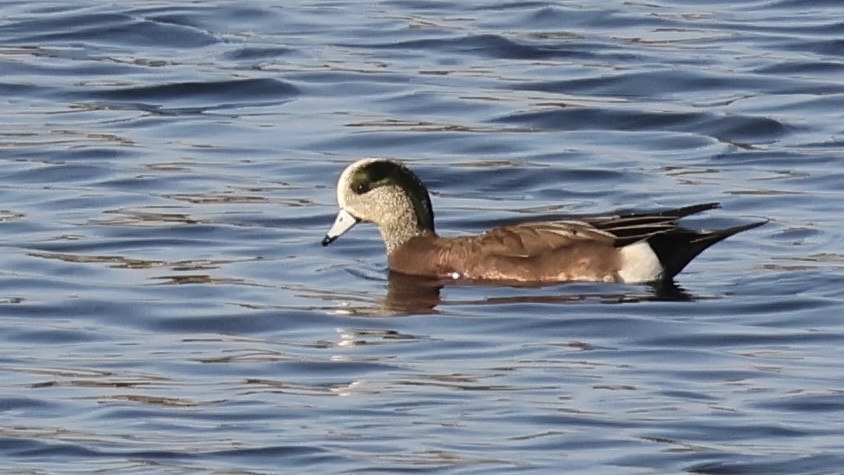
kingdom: Animalia
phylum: Chordata
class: Aves
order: Anseriformes
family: Anatidae
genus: Mareca
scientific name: Mareca americana
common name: American wigeon
